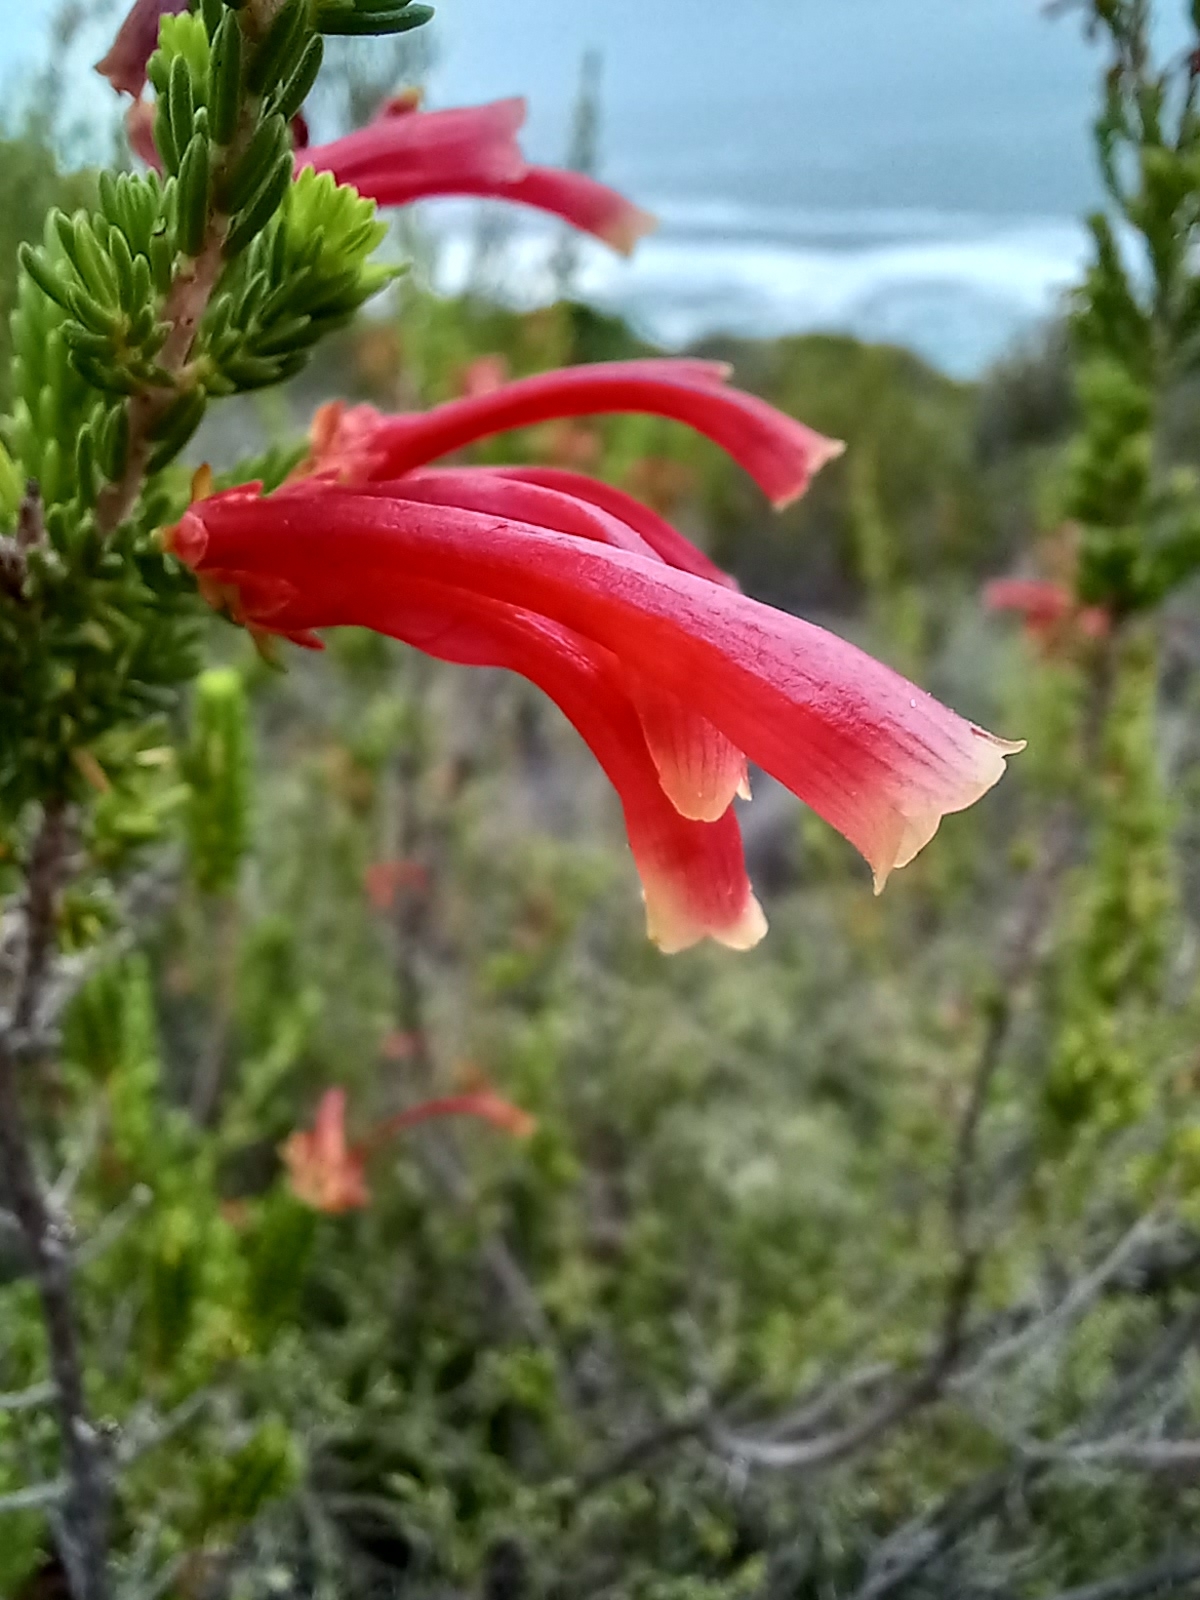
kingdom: Plantae
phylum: Tracheophyta
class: Magnoliopsida
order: Ericales
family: Ericaceae
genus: Erica
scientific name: Erica discolor
